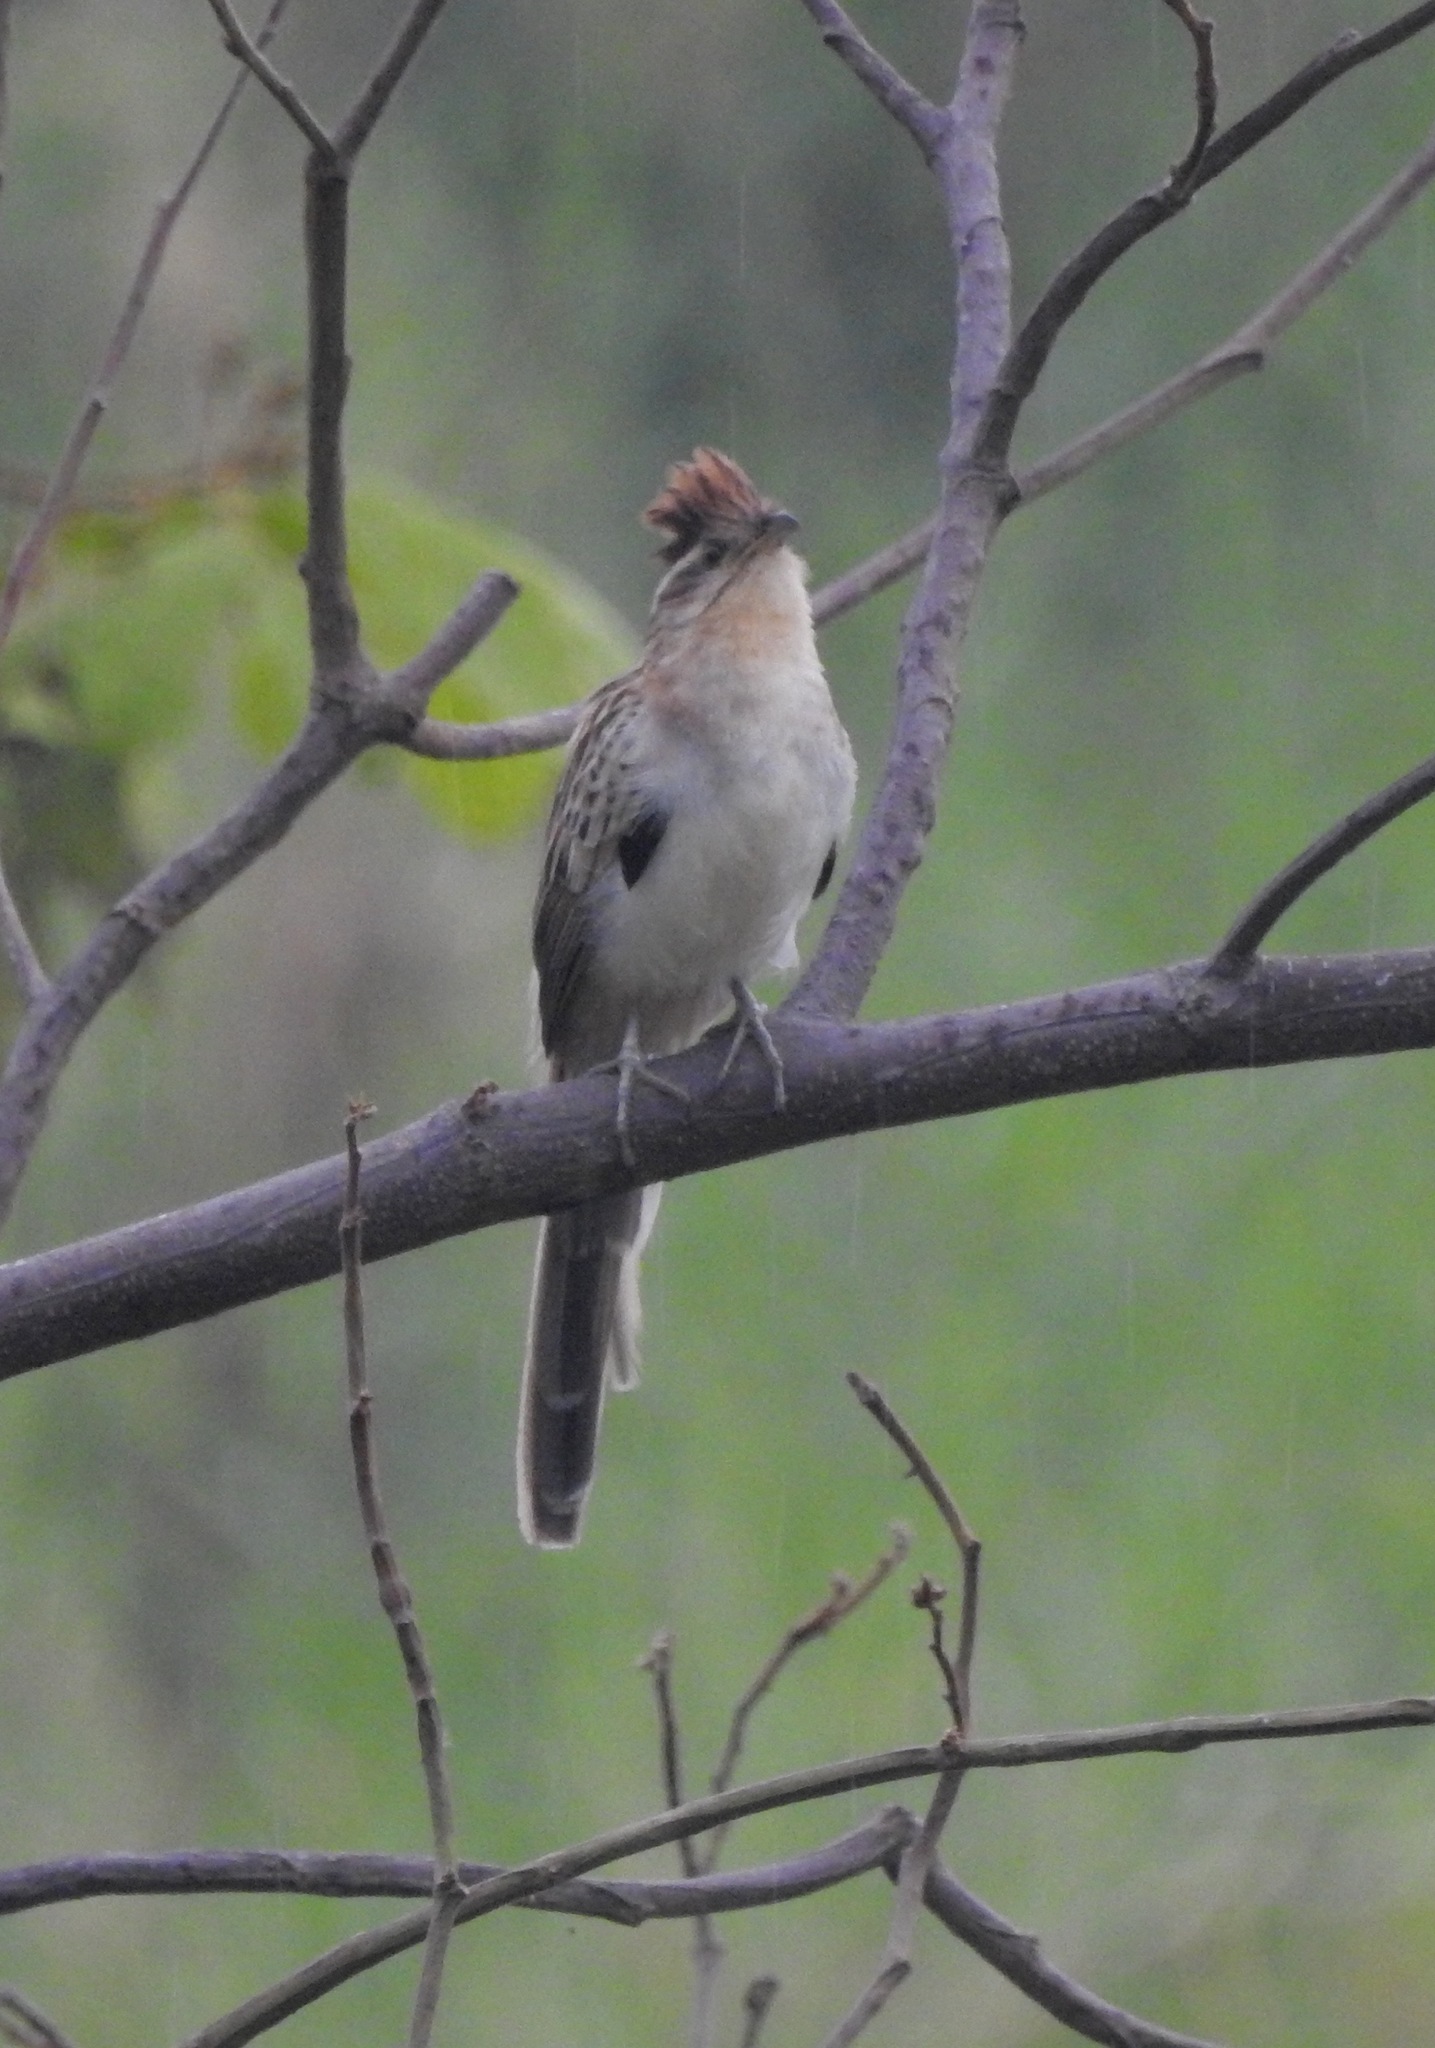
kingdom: Animalia
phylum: Chordata
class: Aves
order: Cuculiformes
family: Cuculidae
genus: Tapera
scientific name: Tapera naevia
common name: Striped cuckoo
